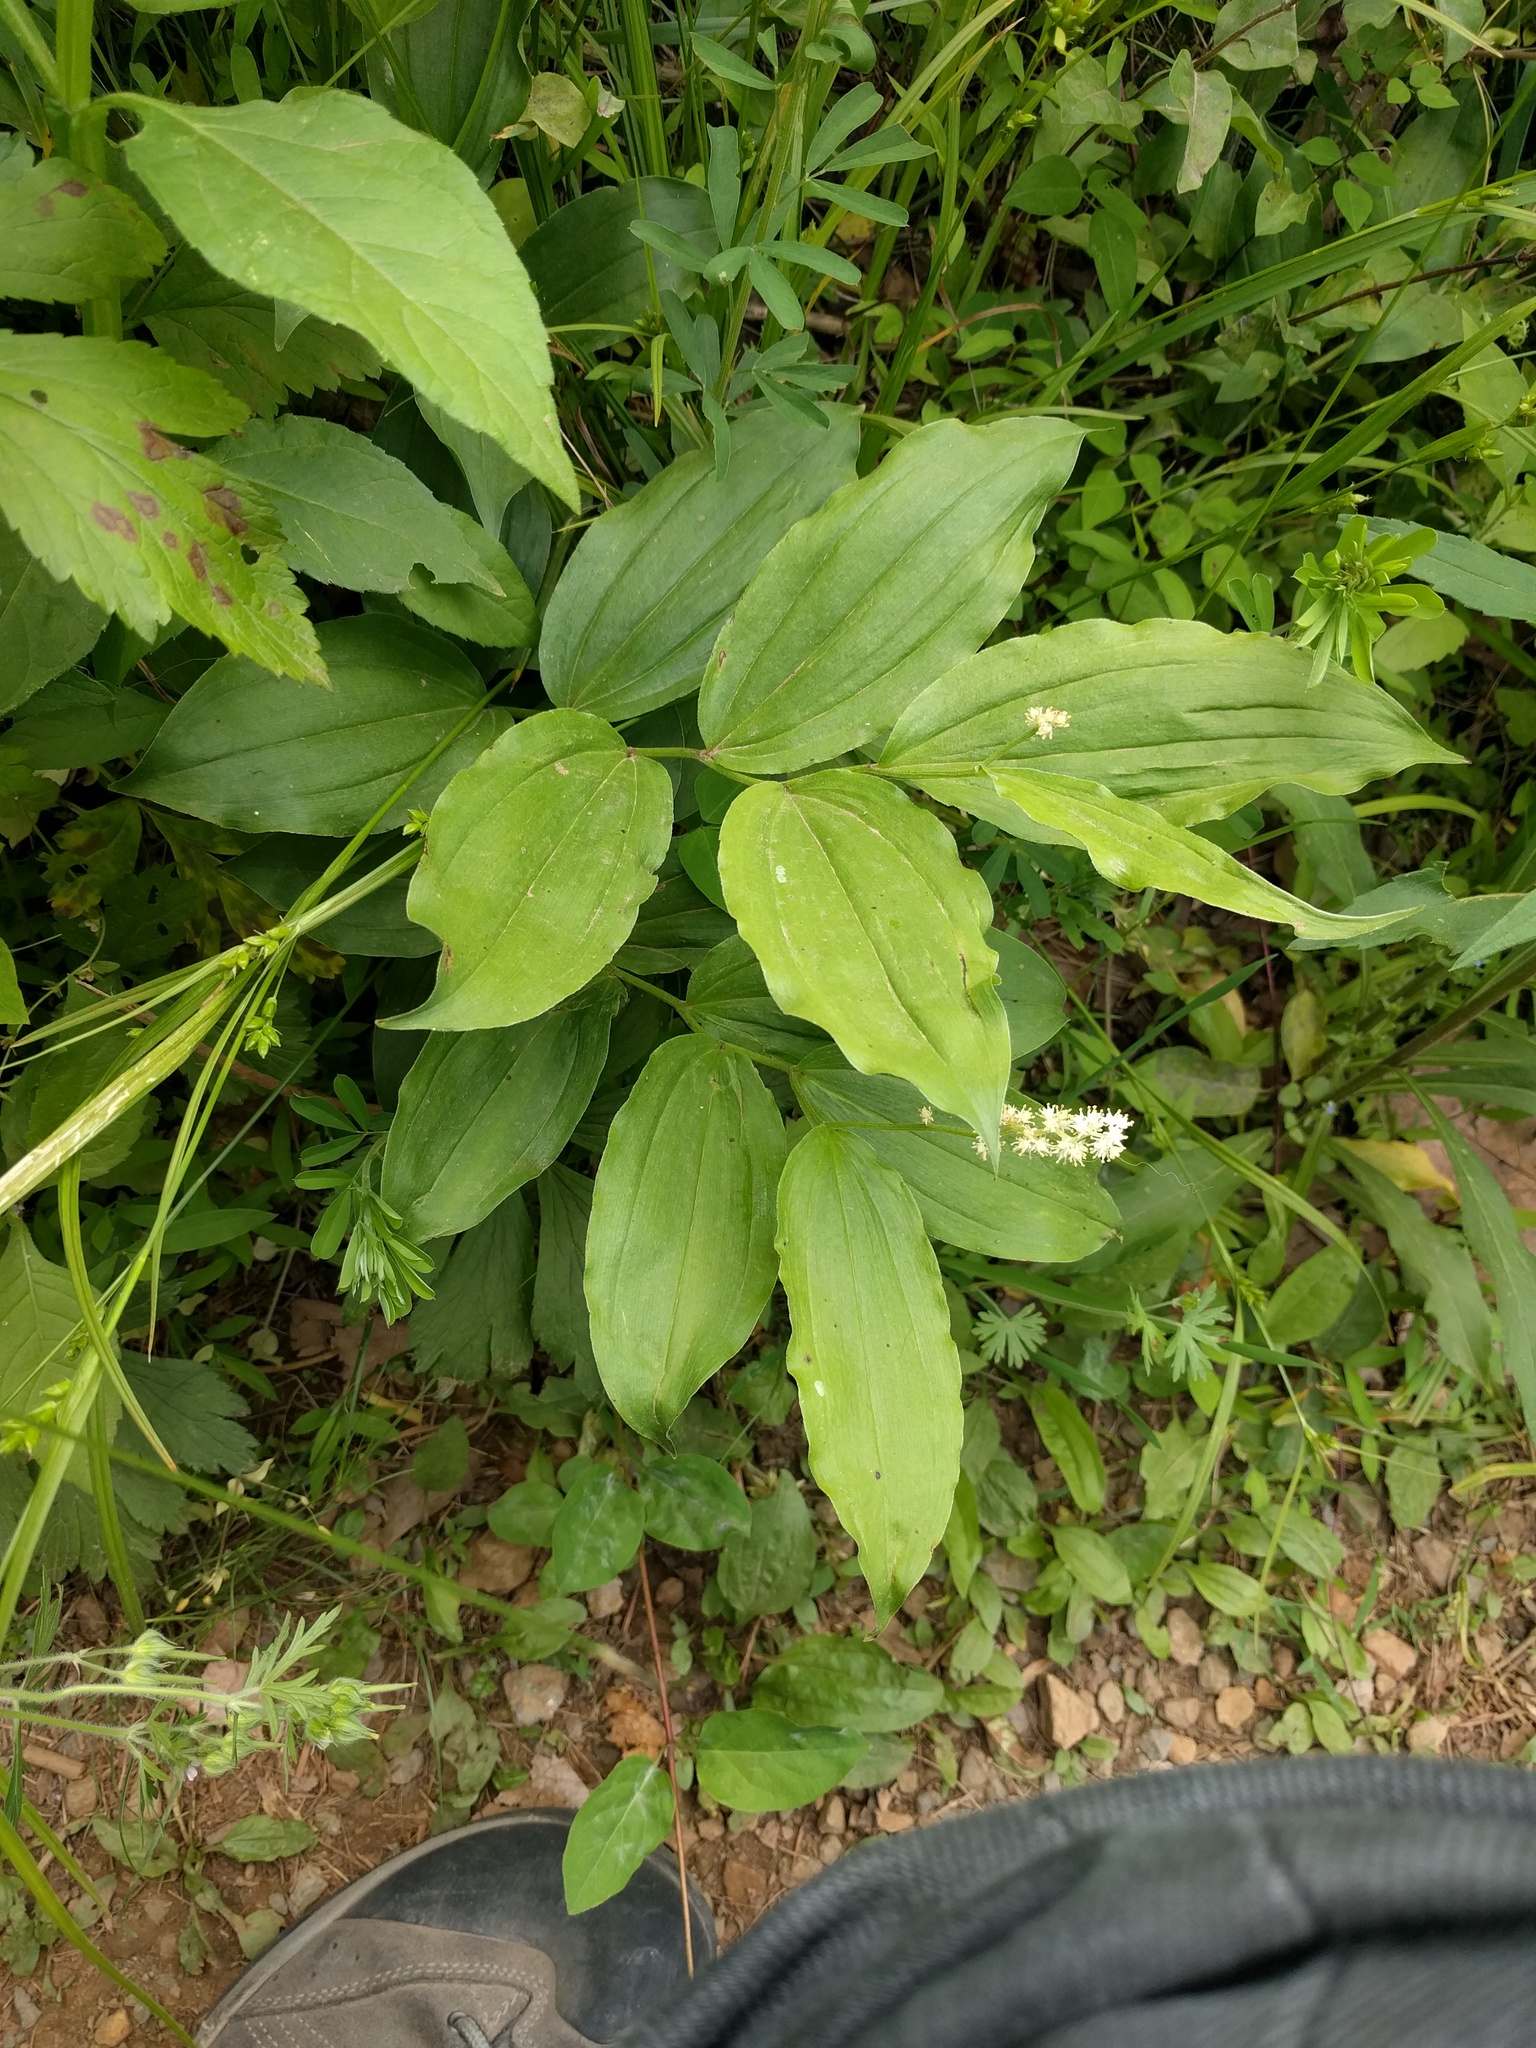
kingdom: Plantae
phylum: Tracheophyta
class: Liliopsida
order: Asparagales
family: Asparagaceae
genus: Maianthemum
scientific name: Maianthemum racemosum
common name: False spikenard
